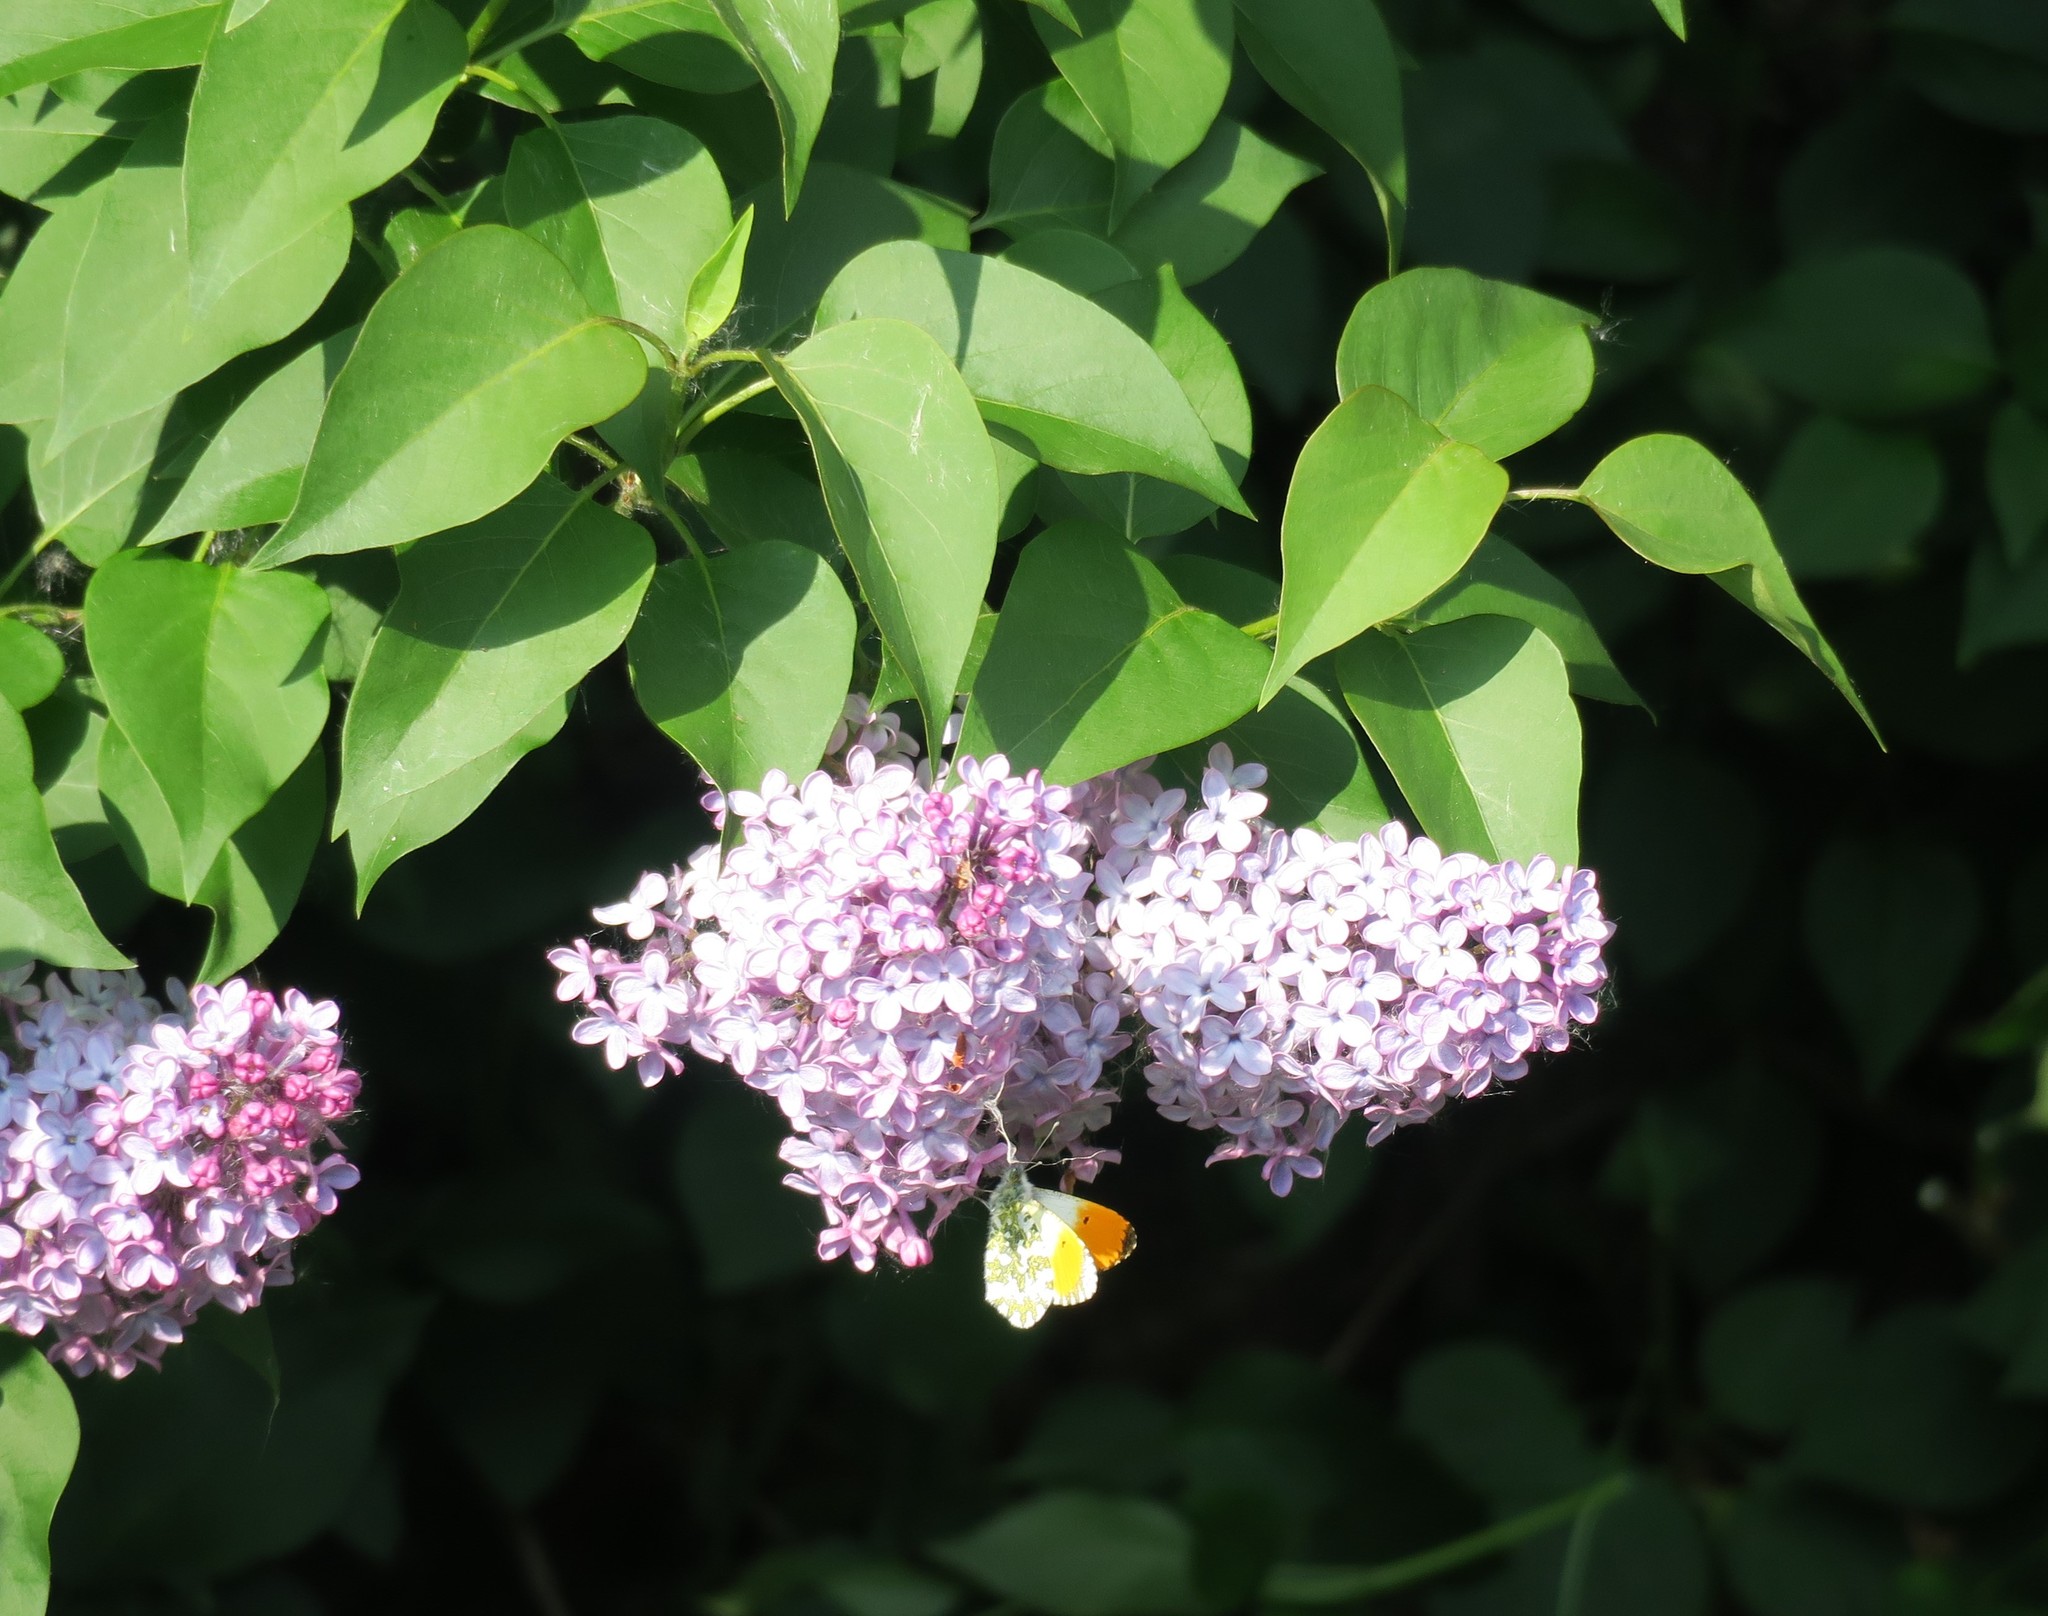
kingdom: Animalia
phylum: Arthropoda
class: Insecta
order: Lepidoptera
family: Pieridae
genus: Anthocharis
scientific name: Anthocharis cardamines
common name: Orange-tip
